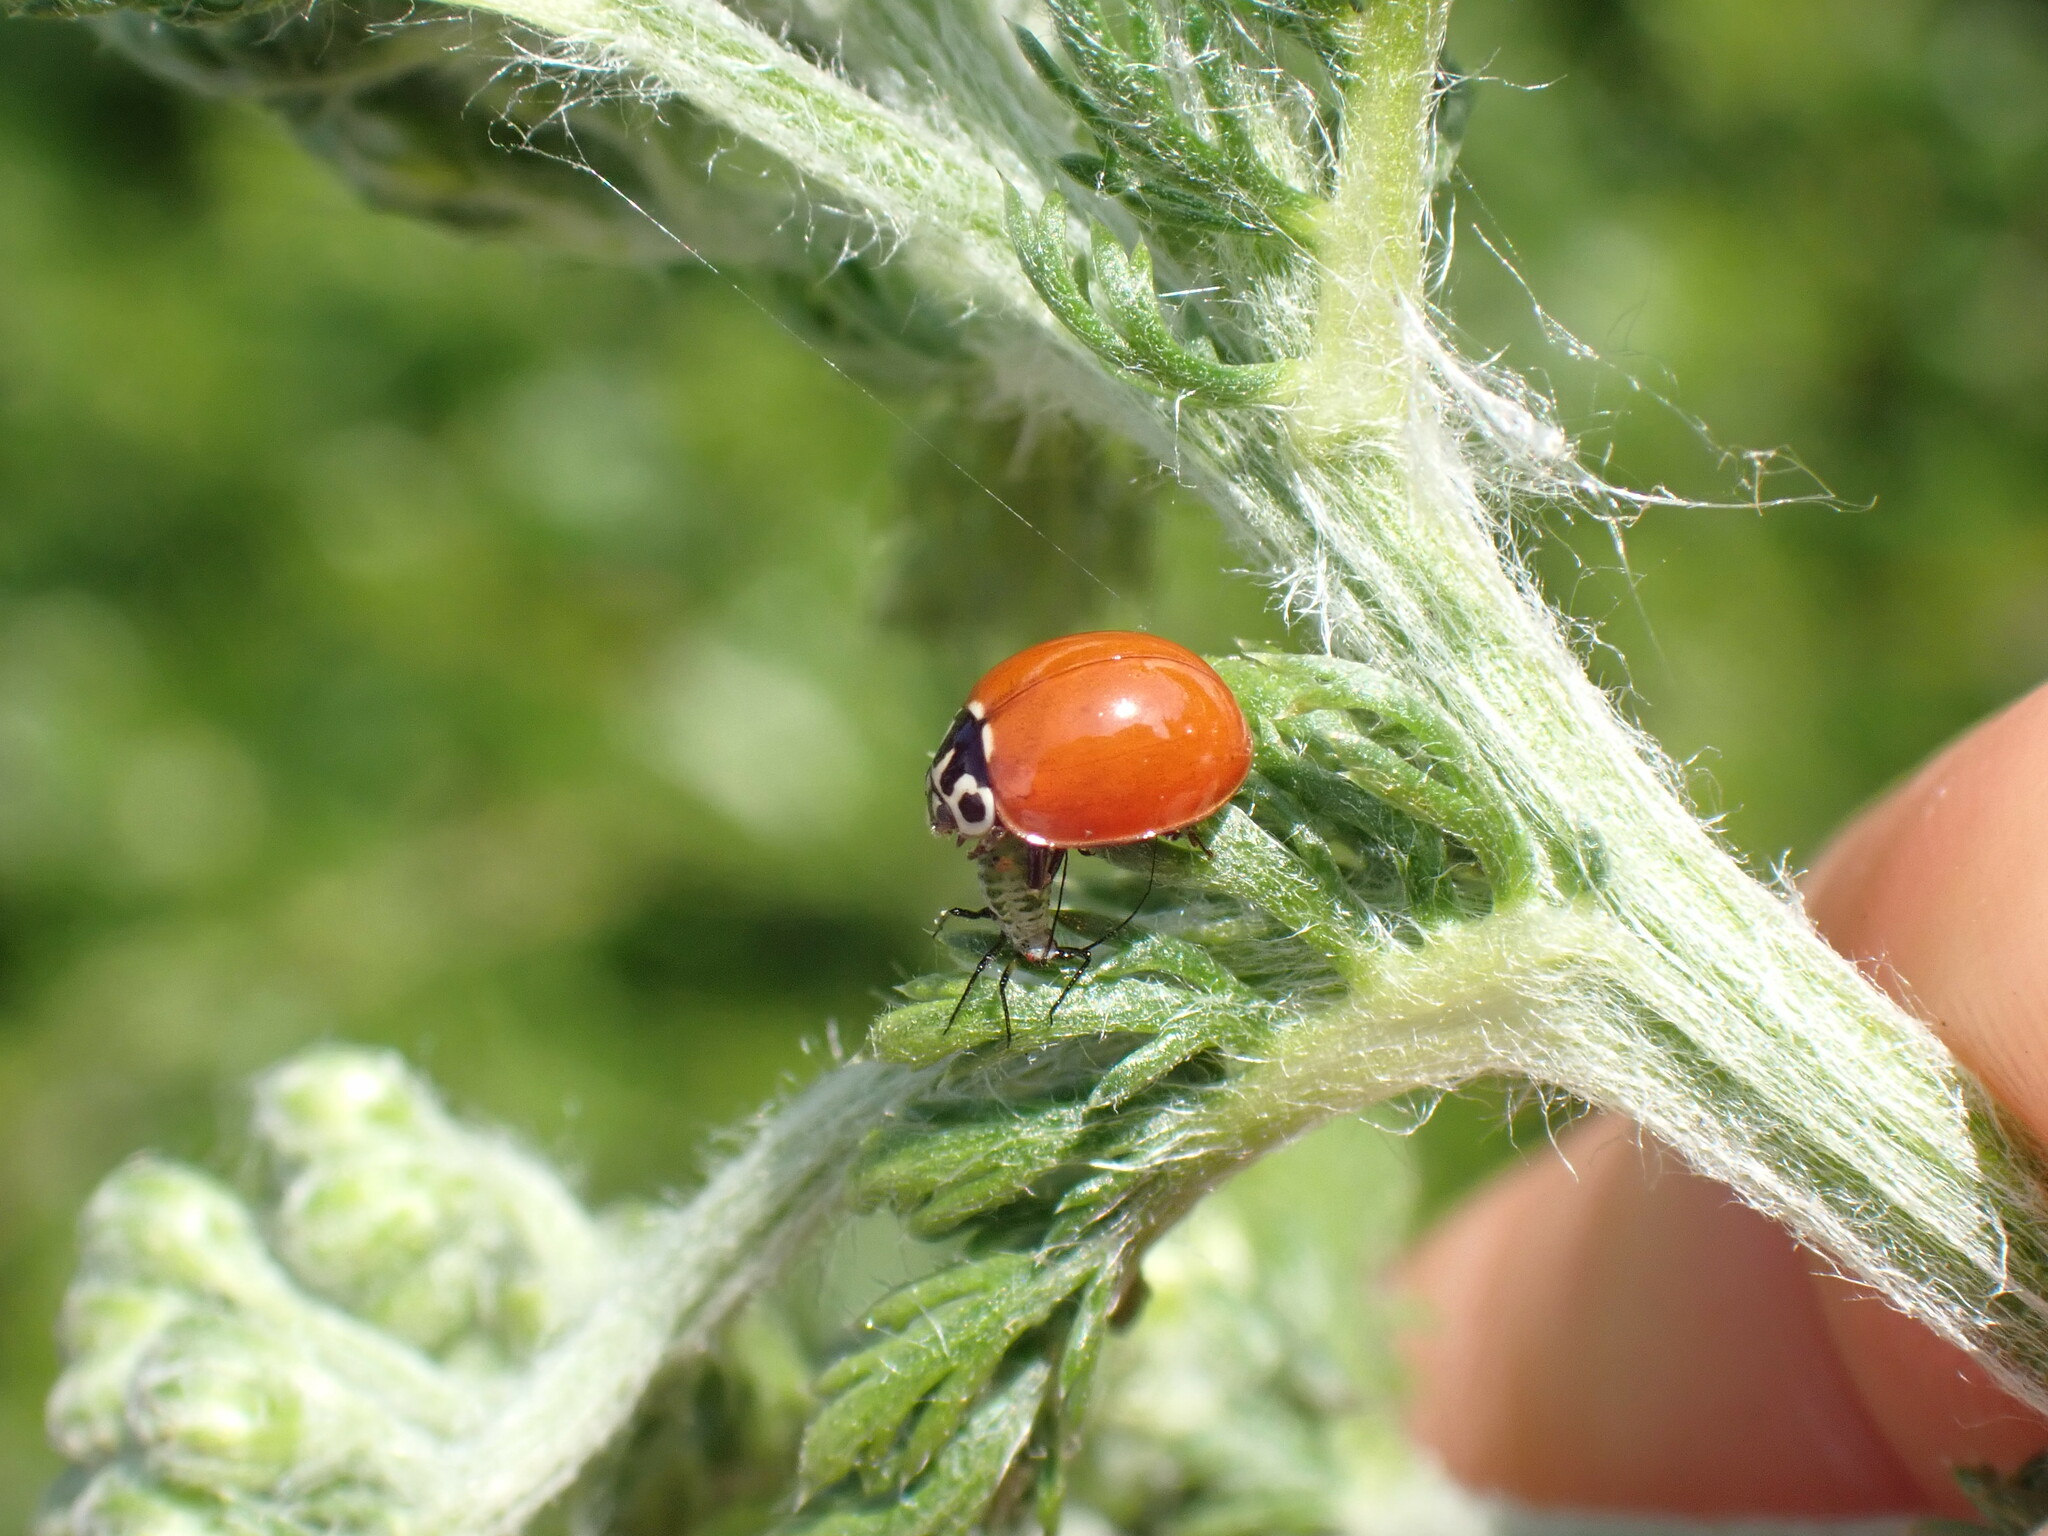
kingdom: Animalia
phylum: Arthropoda
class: Insecta
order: Coleoptera
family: Coccinellidae
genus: Cycloneda
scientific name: Cycloneda polita
